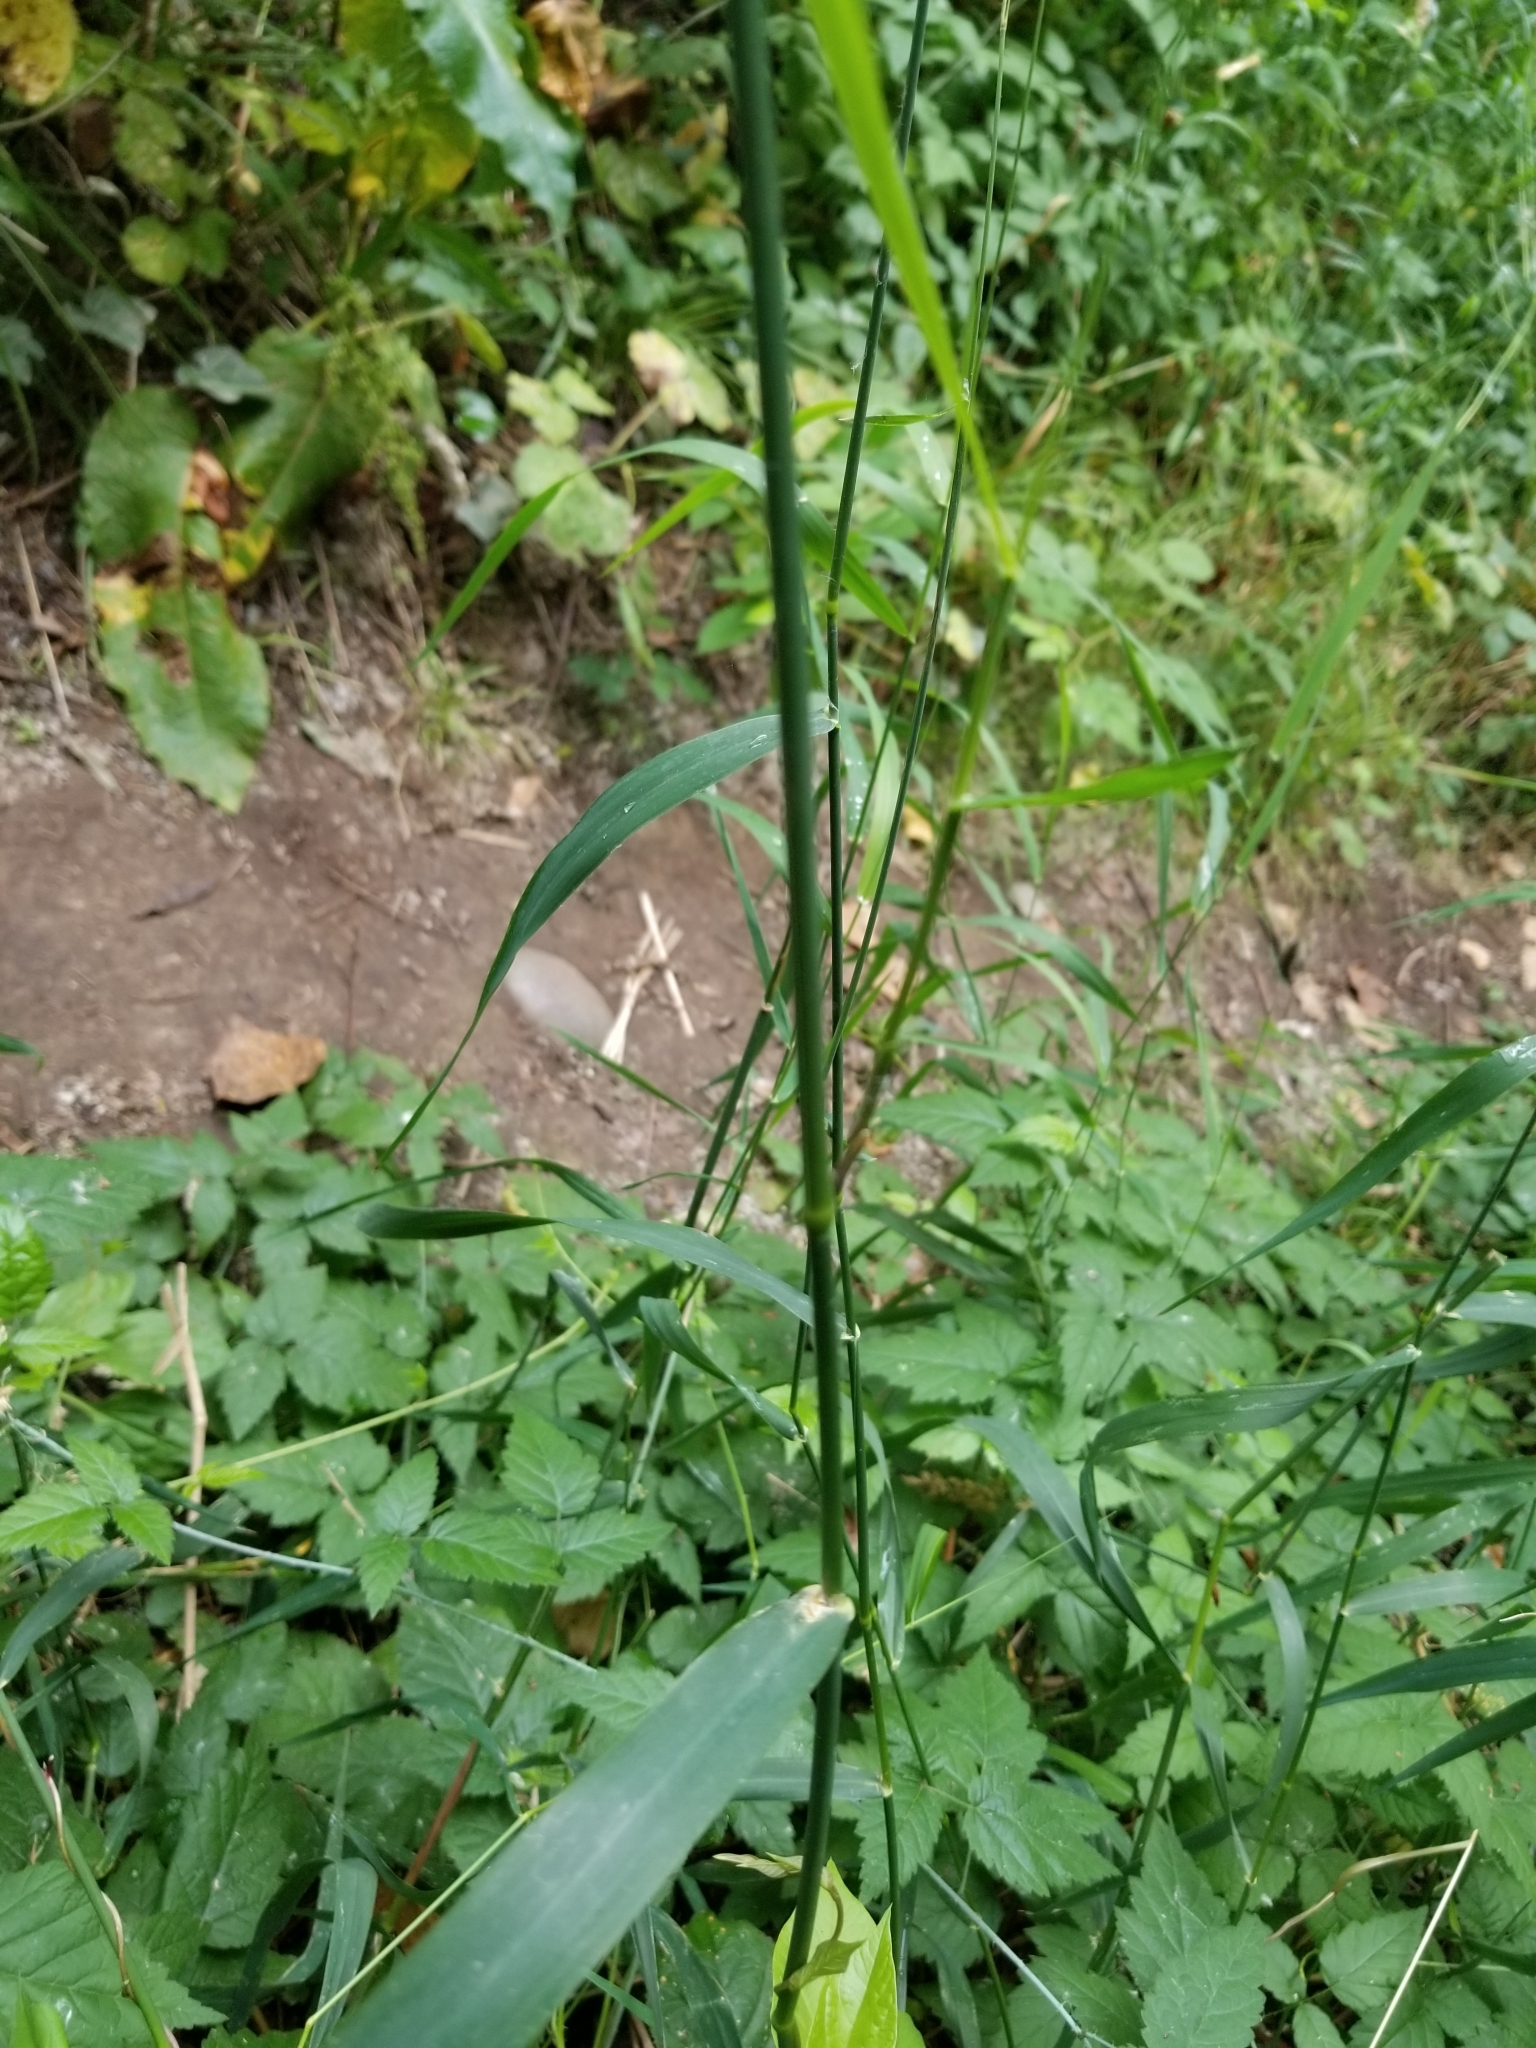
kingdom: Plantae
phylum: Tracheophyta
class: Liliopsida
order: Poales
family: Poaceae
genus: Phalaris
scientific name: Phalaris arundinacea
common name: Reed canary-grass
